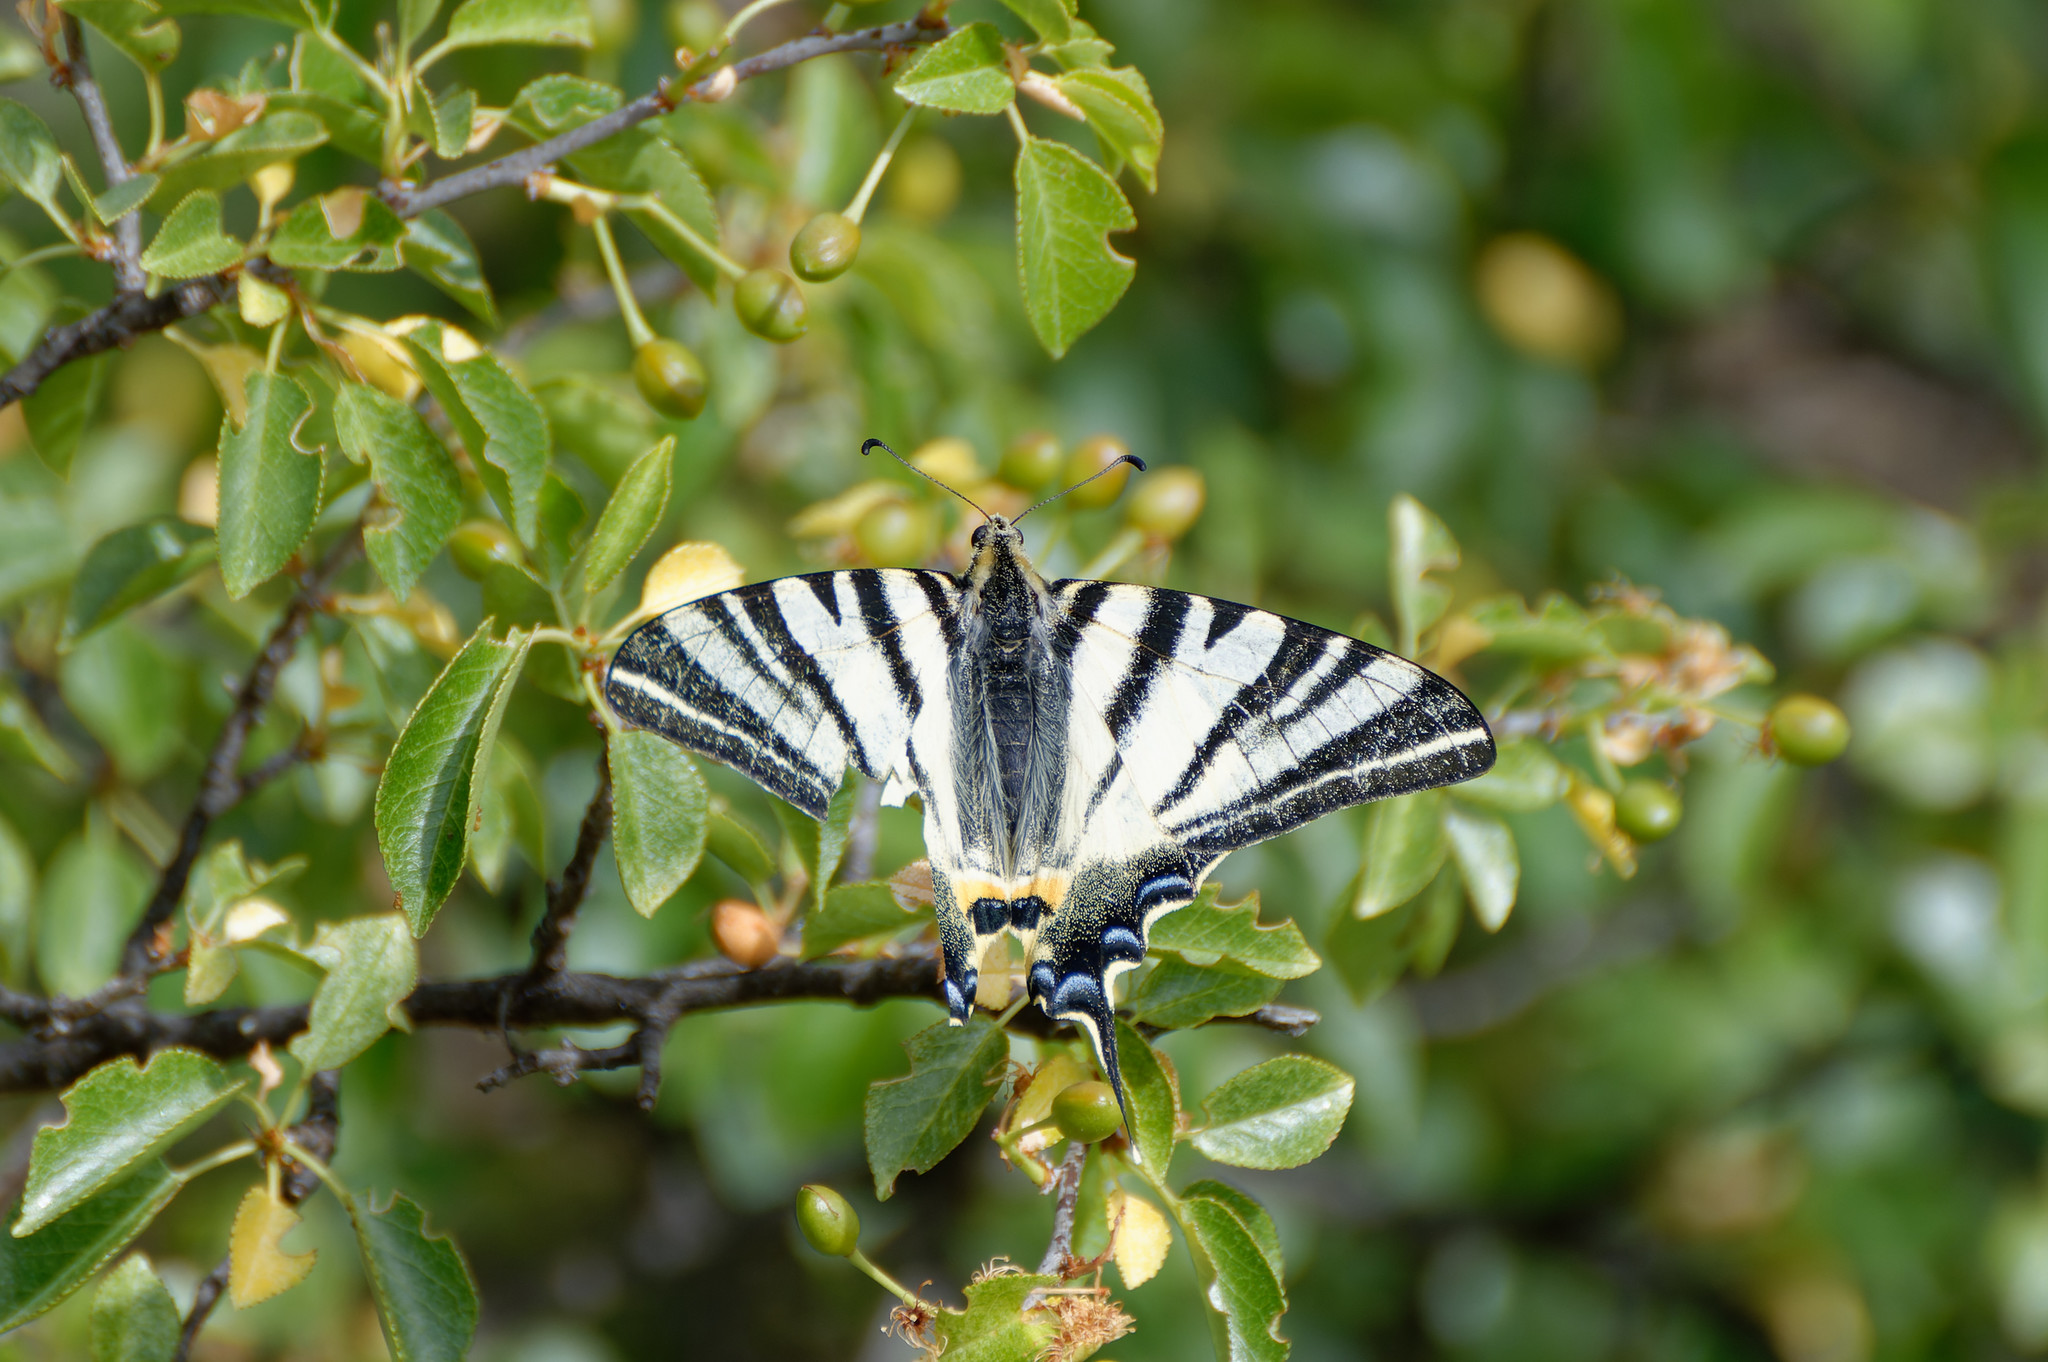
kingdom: Animalia
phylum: Arthropoda
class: Insecta
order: Lepidoptera
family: Papilionidae
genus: Iphiclides
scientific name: Iphiclides podalirius
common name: Scarce swallowtail
